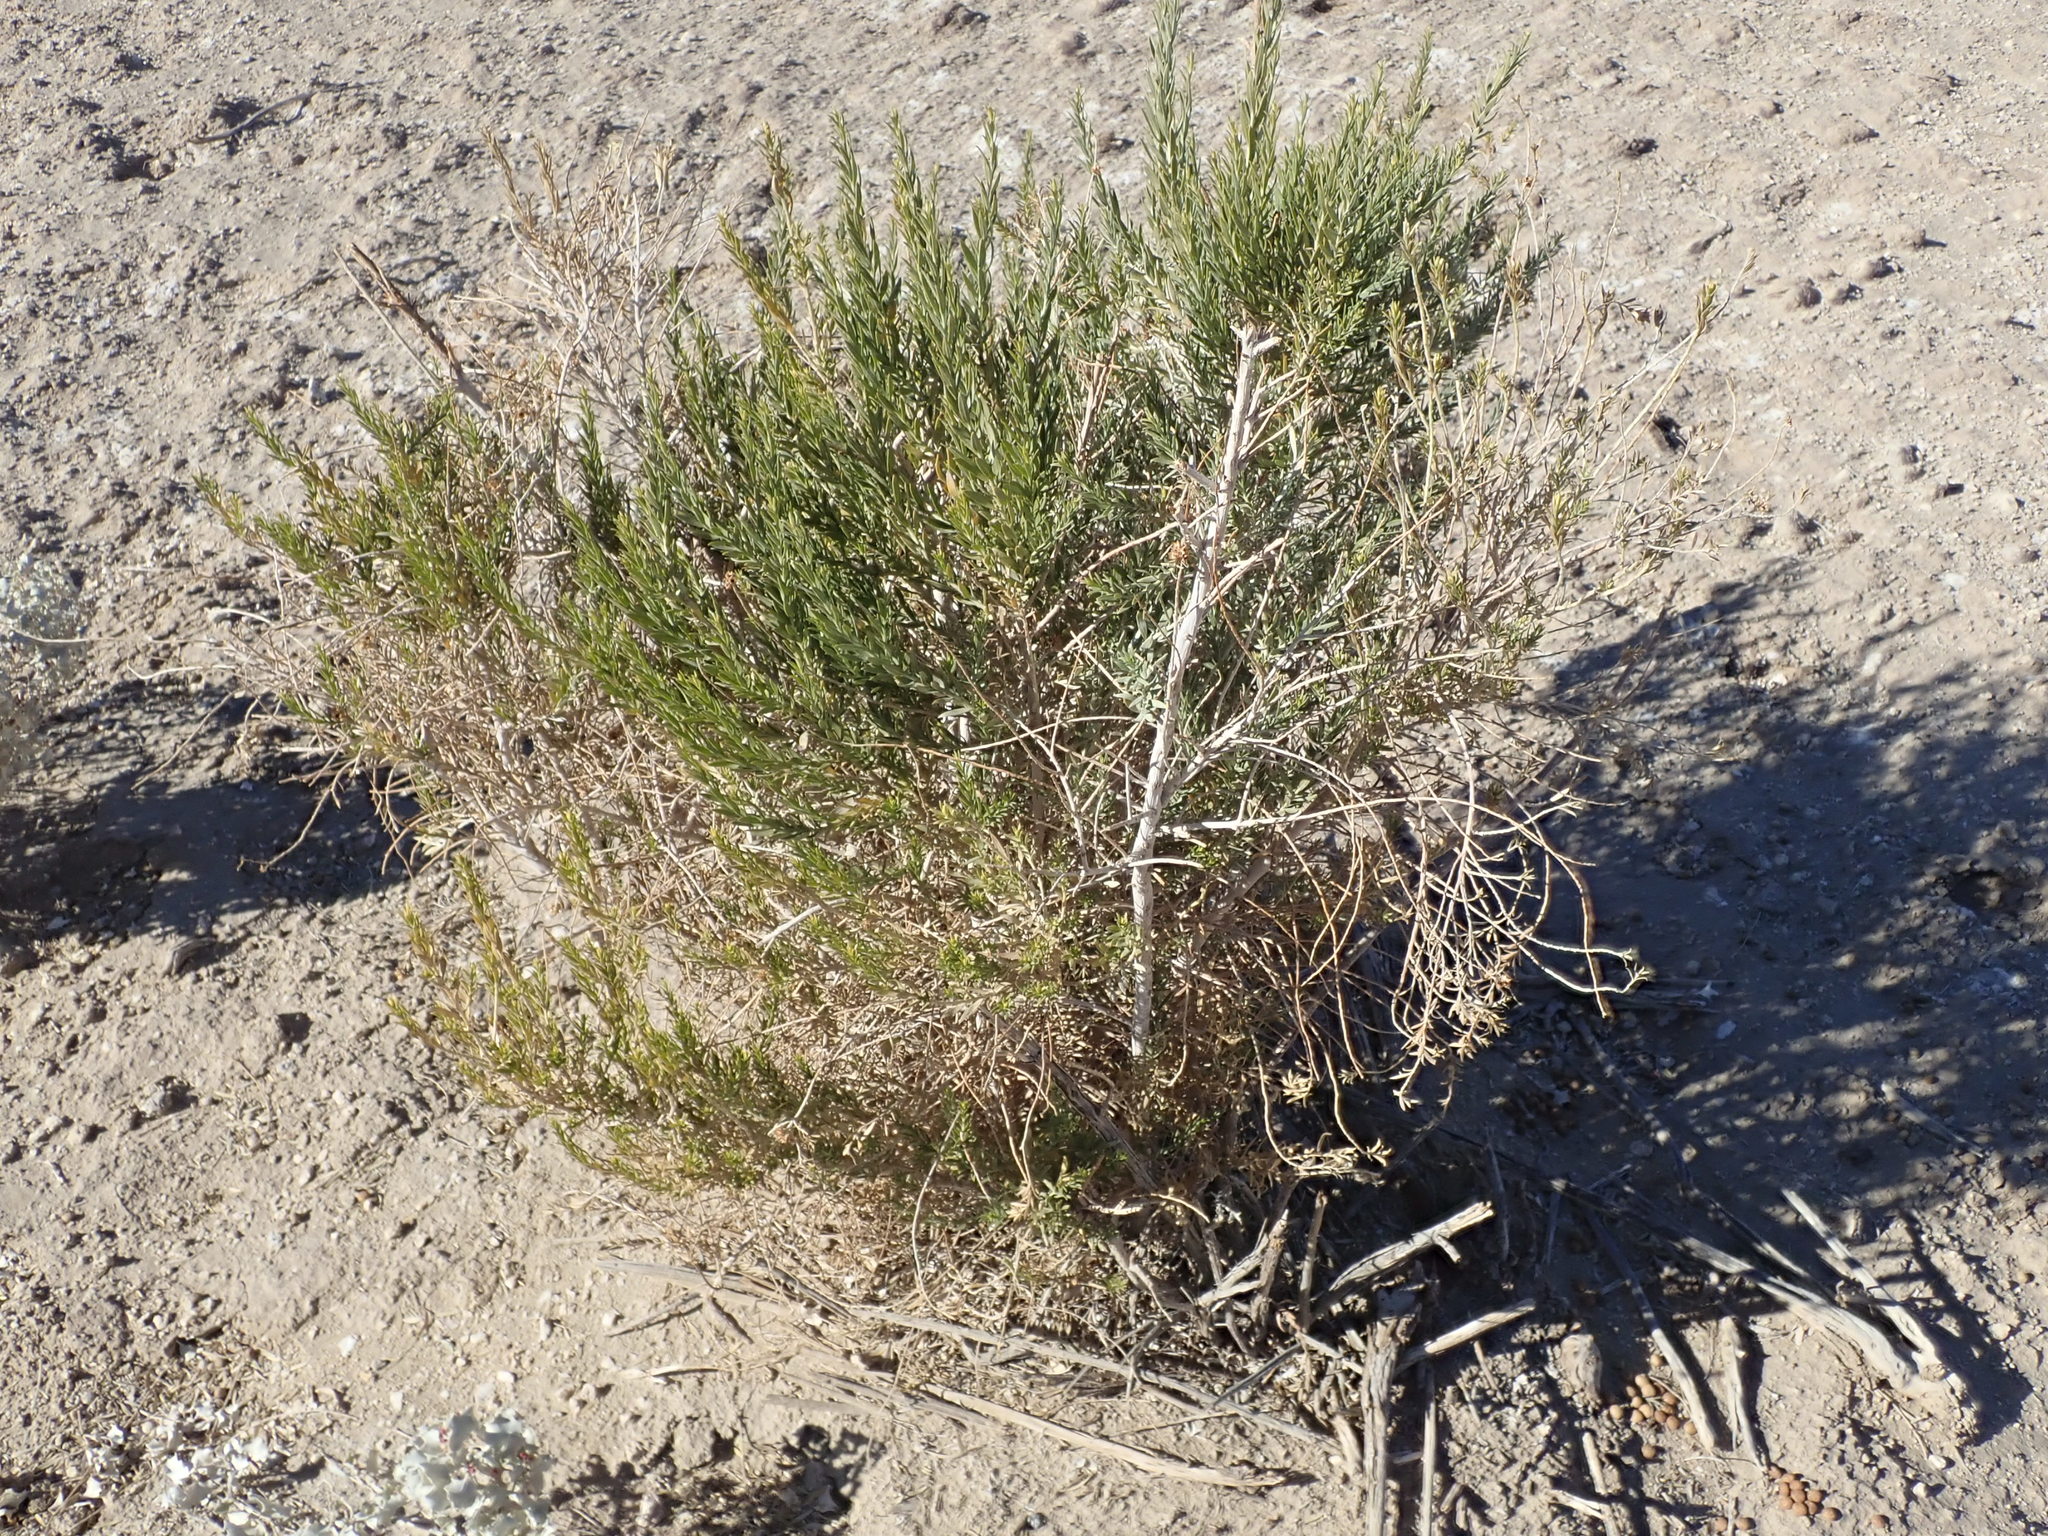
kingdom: Plantae
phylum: Tracheophyta
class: Magnoliopsida
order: Asterales
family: Asteraceae
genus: Pluchea
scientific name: Pluchea sericea
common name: Arrow-weed
